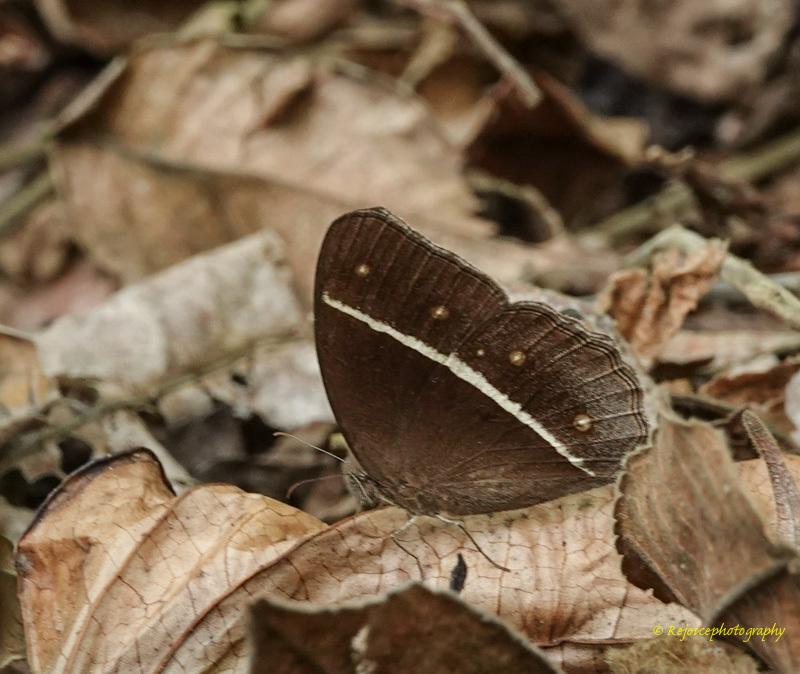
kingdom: Animalia
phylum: Arthropoda
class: Insecta
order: Lepidoptera
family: Nymphalidae
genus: Orsotriaena
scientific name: Orsotriaena medus
